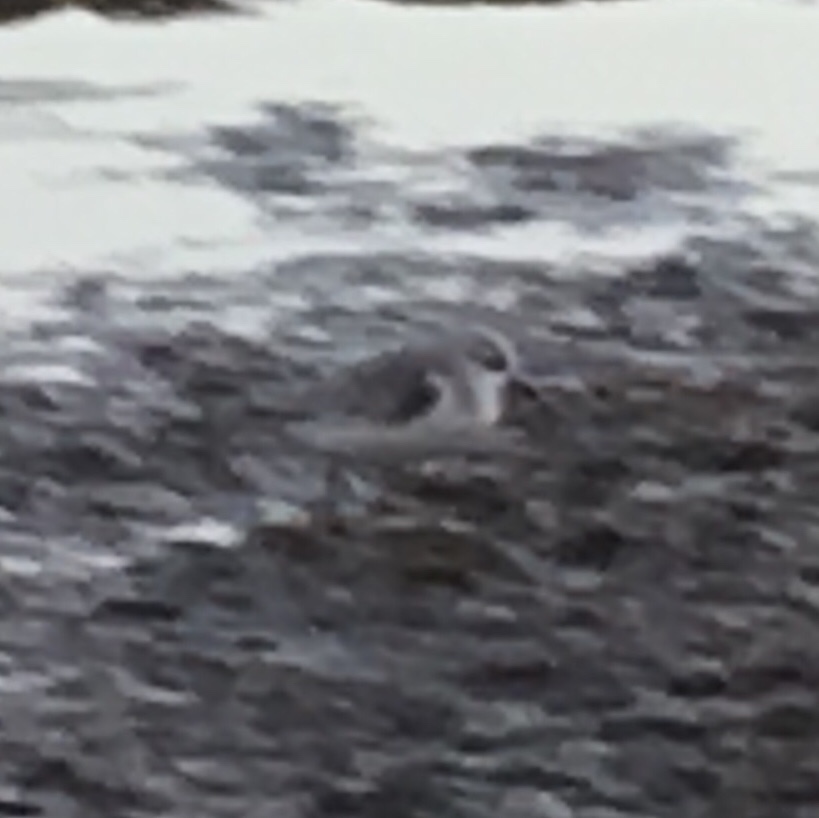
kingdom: Animalia
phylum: Chordata
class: Aves
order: Charadriiformes
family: Scolopacidae
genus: Calidris
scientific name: Calidris alba
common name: Sanderling
